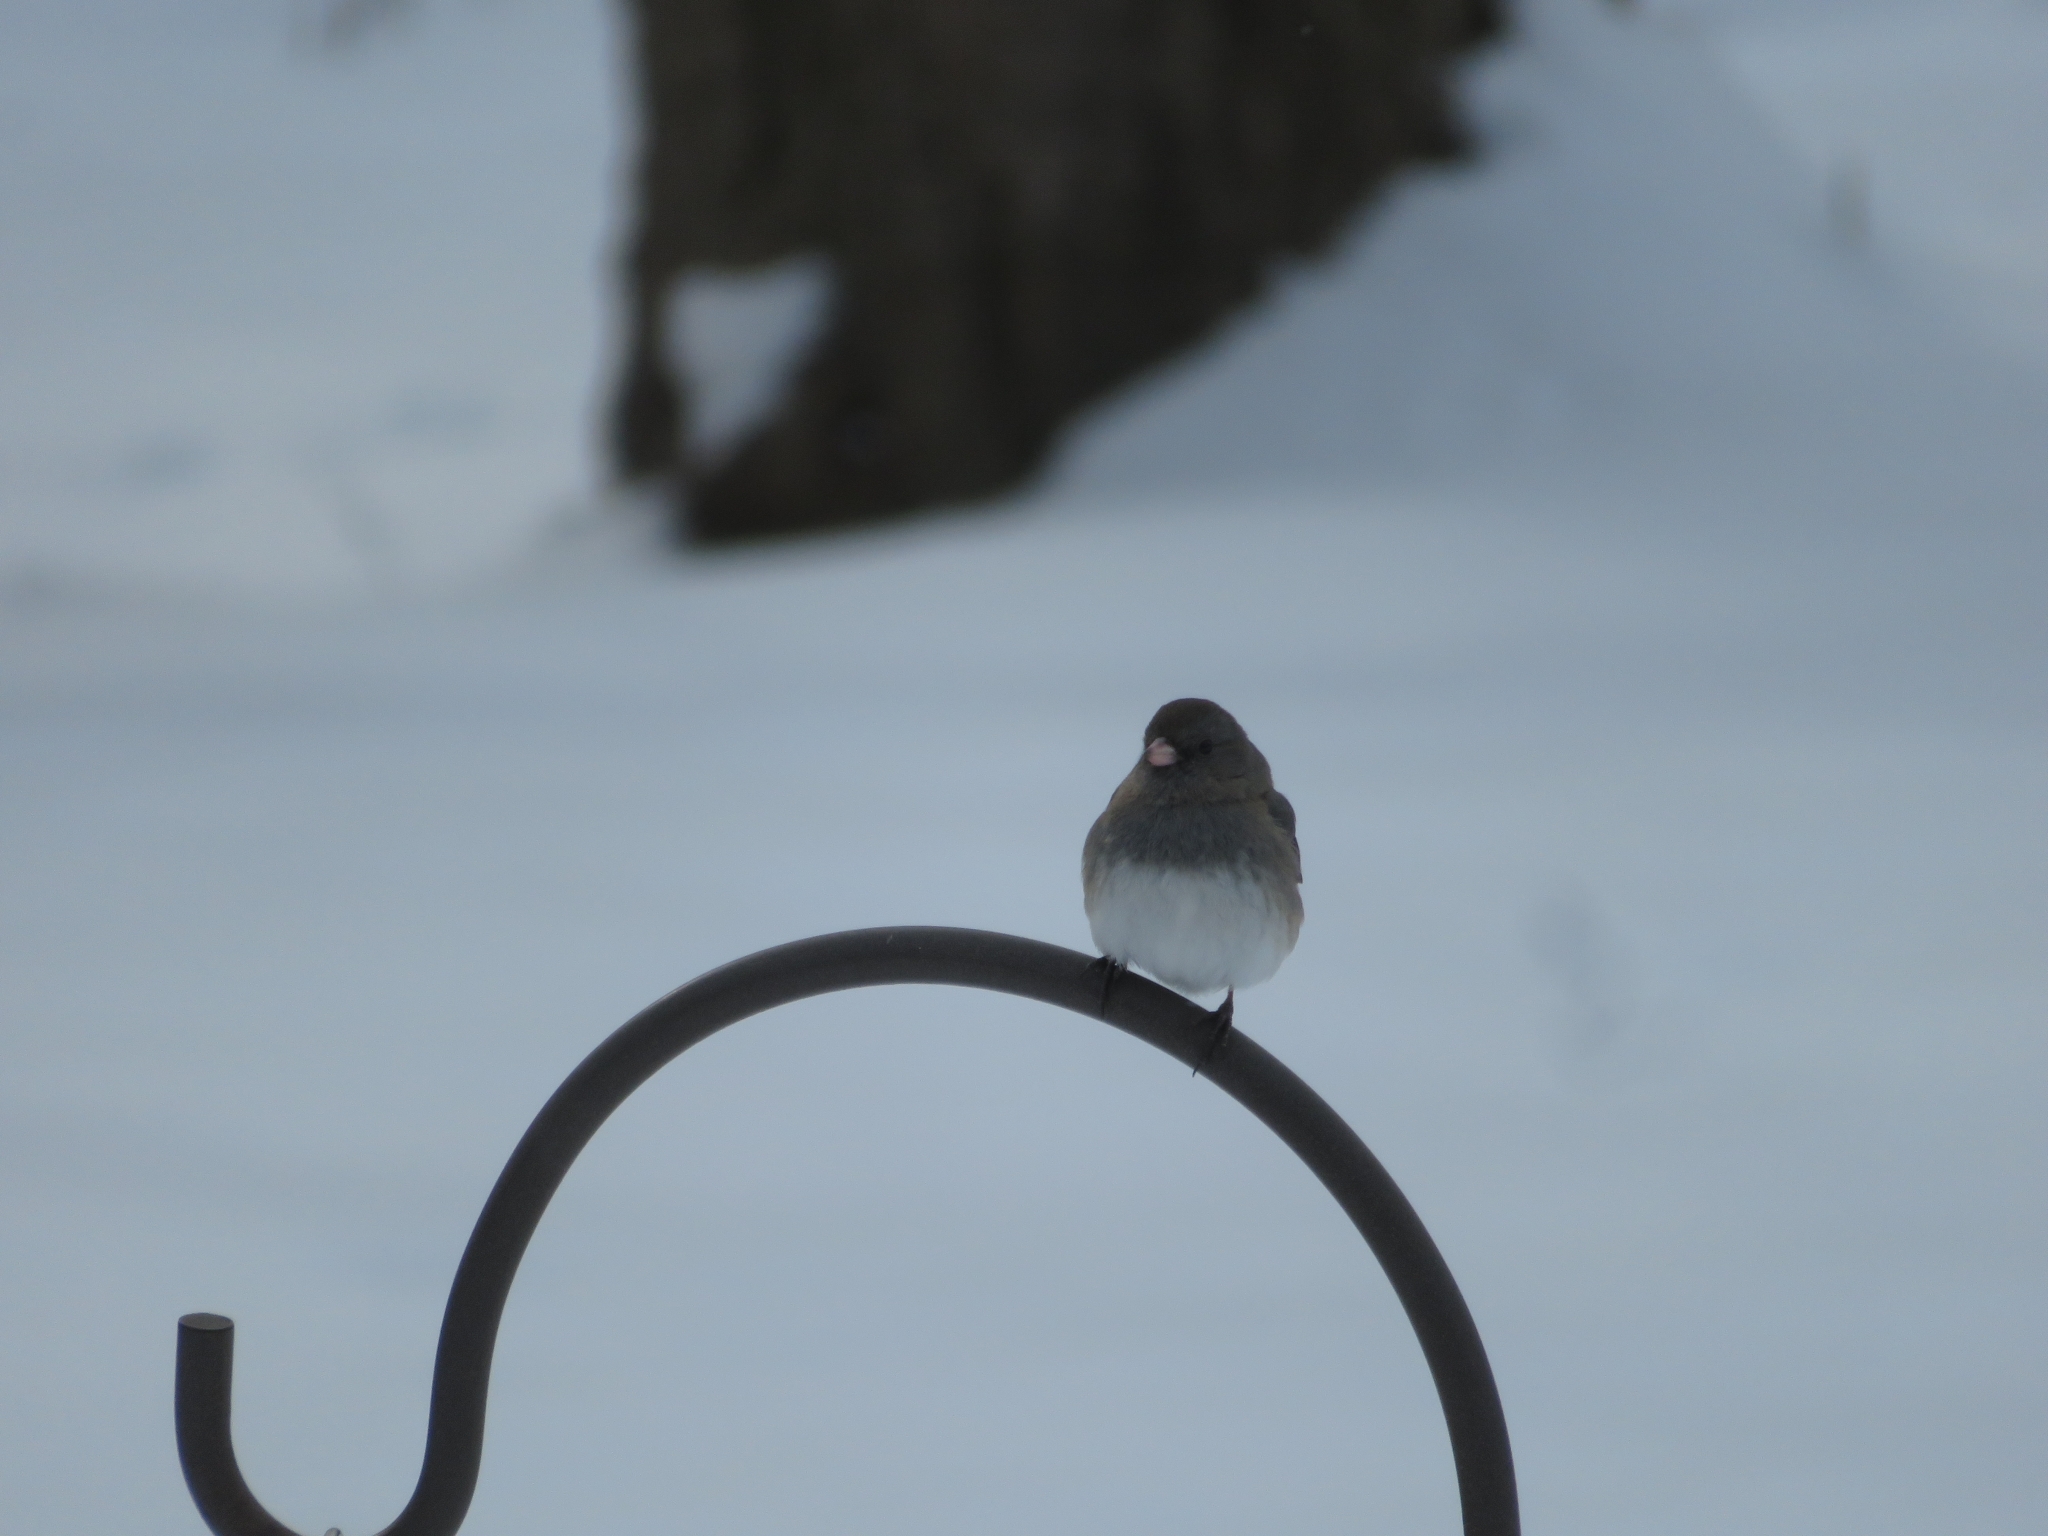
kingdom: Animalia
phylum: Chordata
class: Aves
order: Passeriformes
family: Passerellidae
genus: Junco
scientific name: Junco hyemalis
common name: Dark-eyed junco
